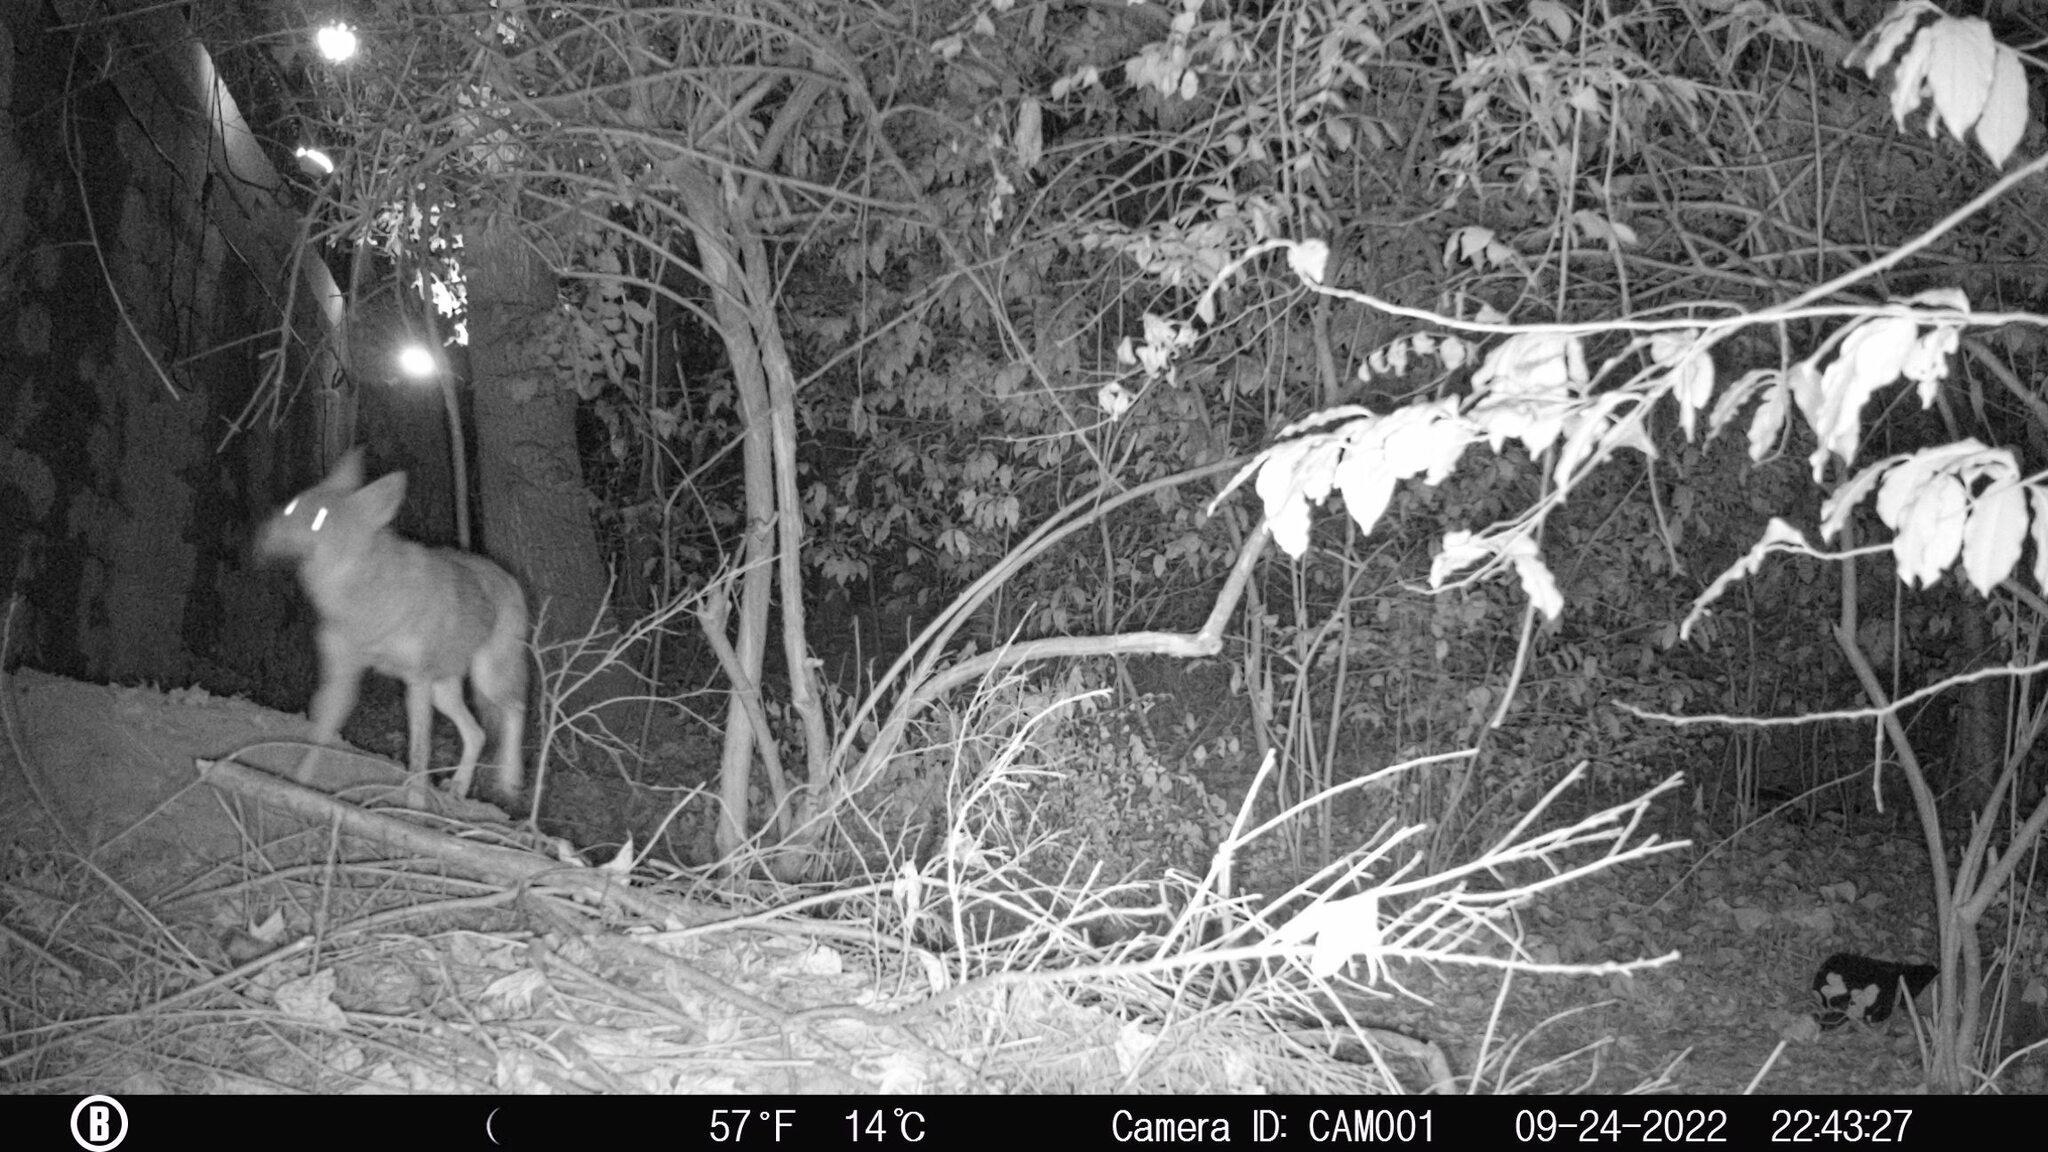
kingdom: Animalia
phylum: Chordata
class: Mammalia
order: Carnivora
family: Canidae
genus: Canis
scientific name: Canis latrans
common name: Coyote
